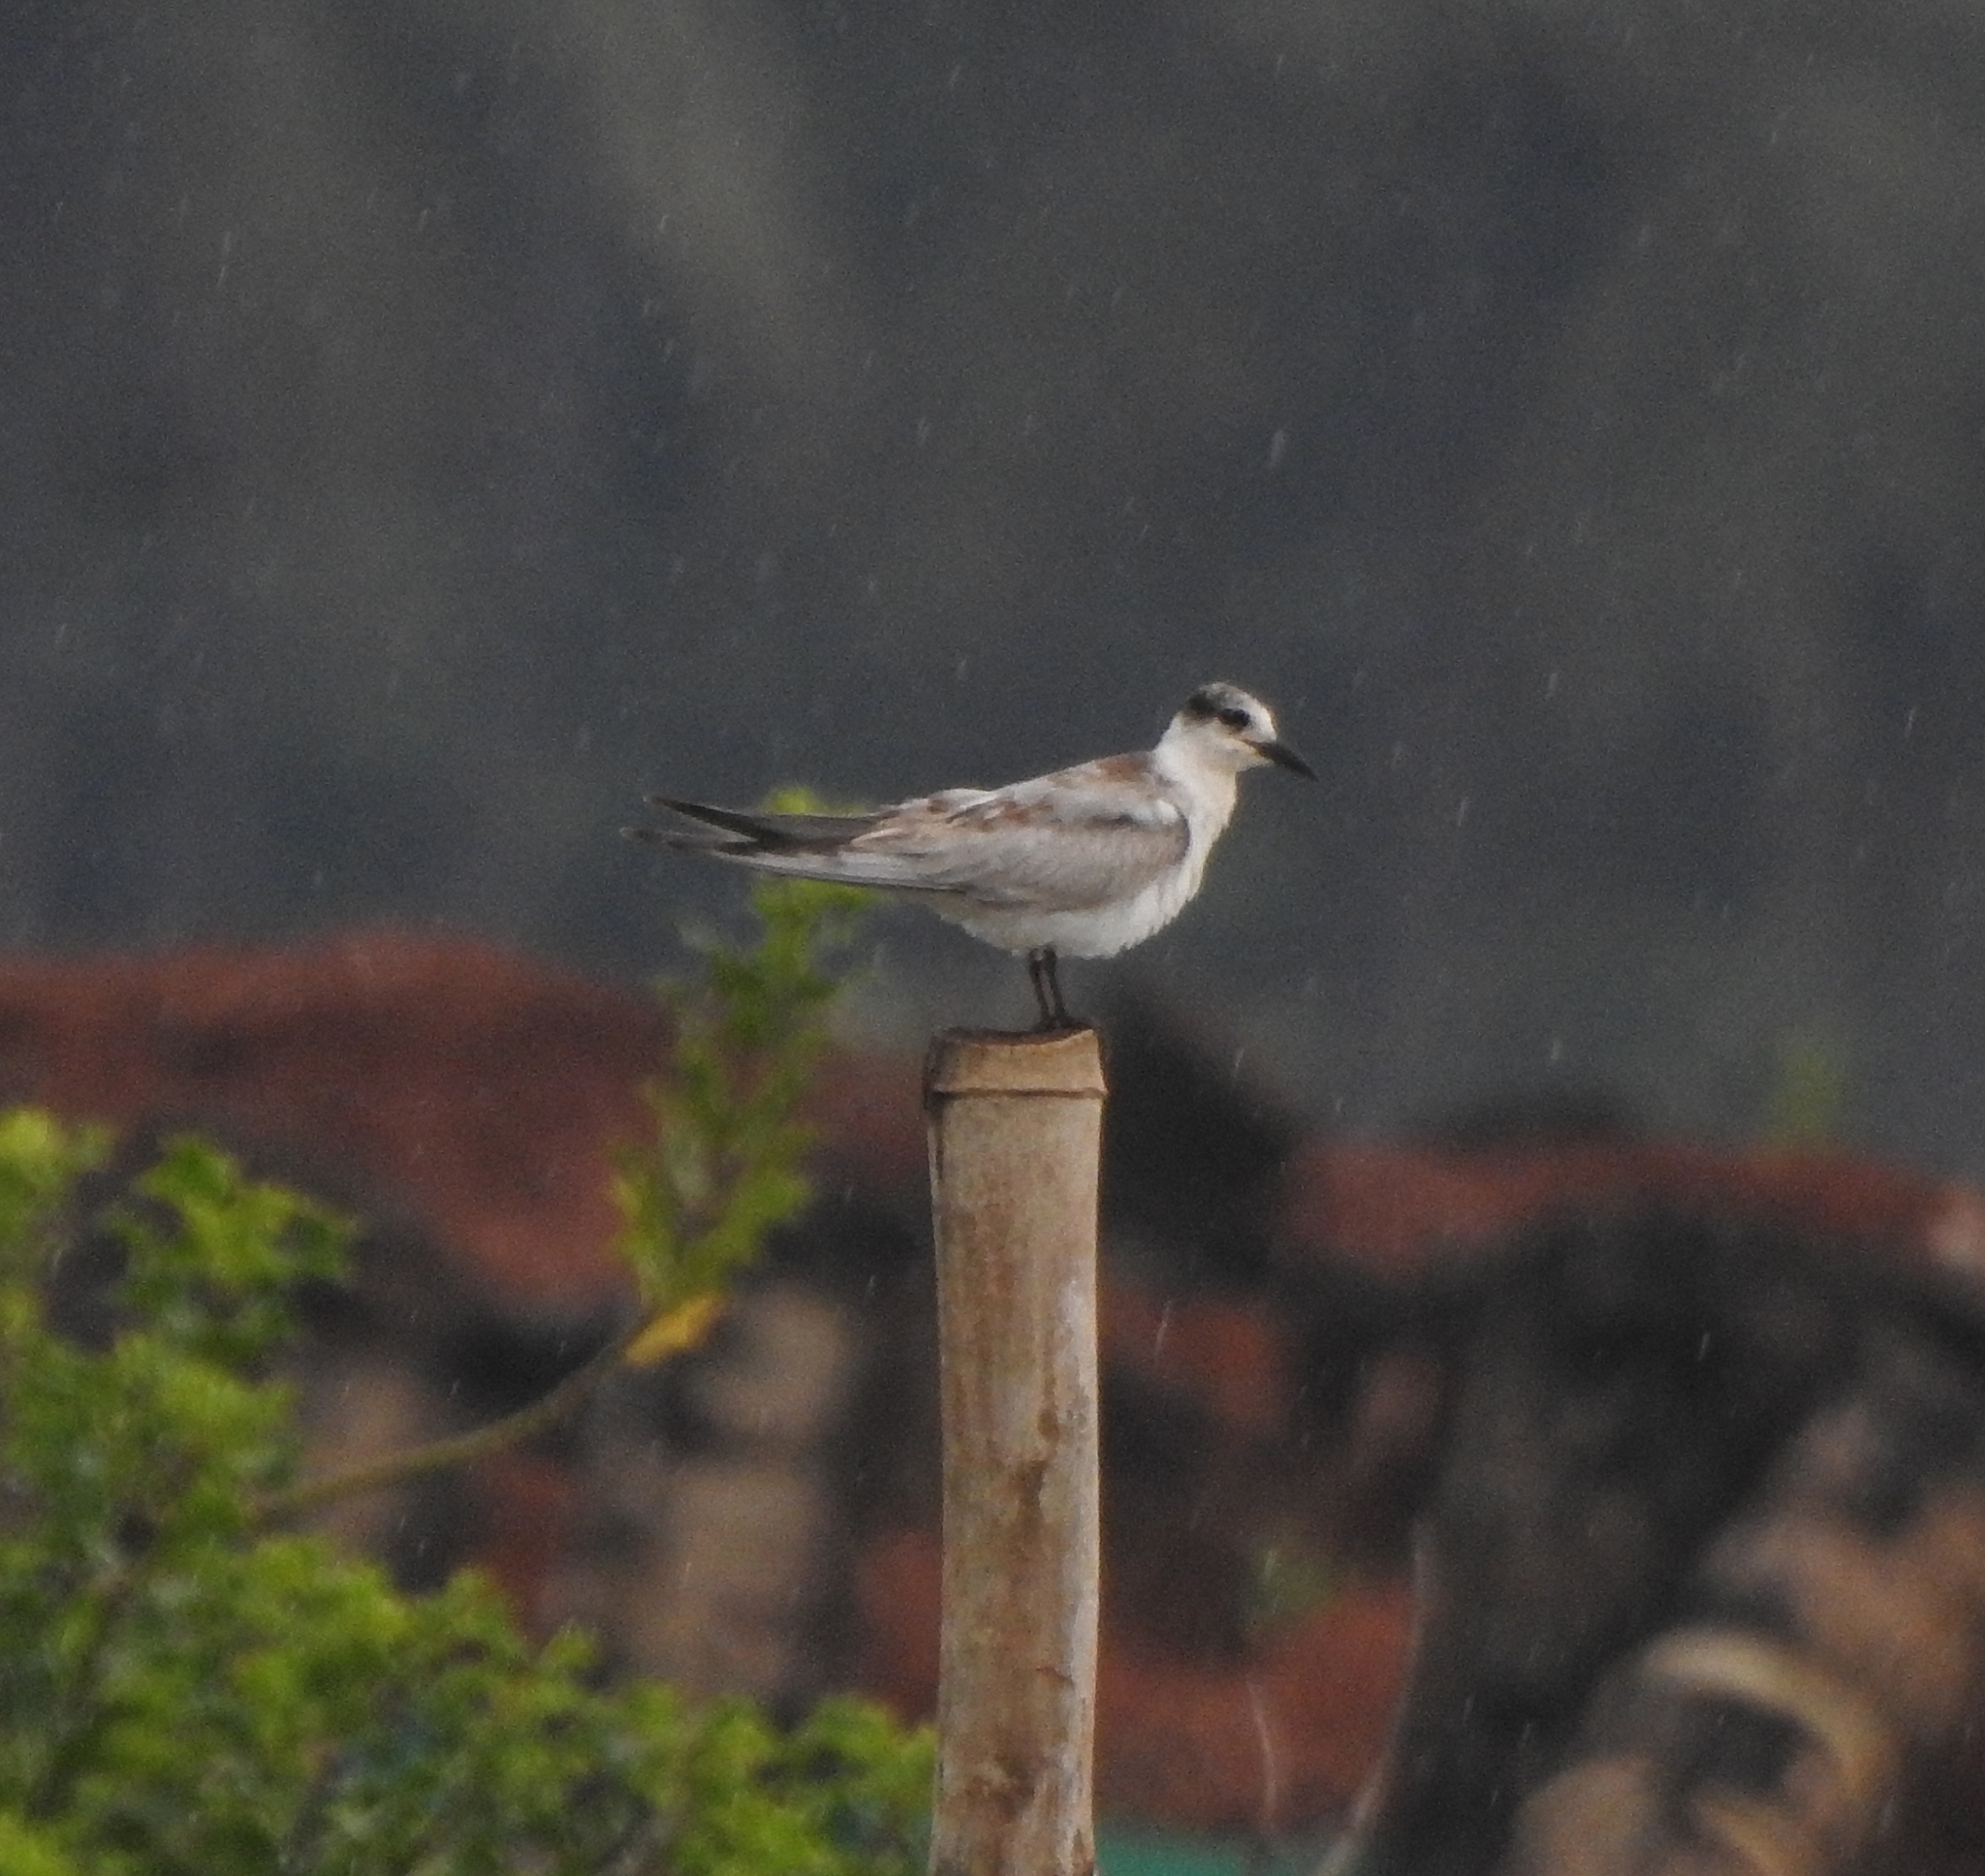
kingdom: Animalia
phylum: Chordata
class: Aves
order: Charadriiformes
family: Laridae
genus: Chlidonias
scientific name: Chlidonias hybrida
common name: Whiskered tern
